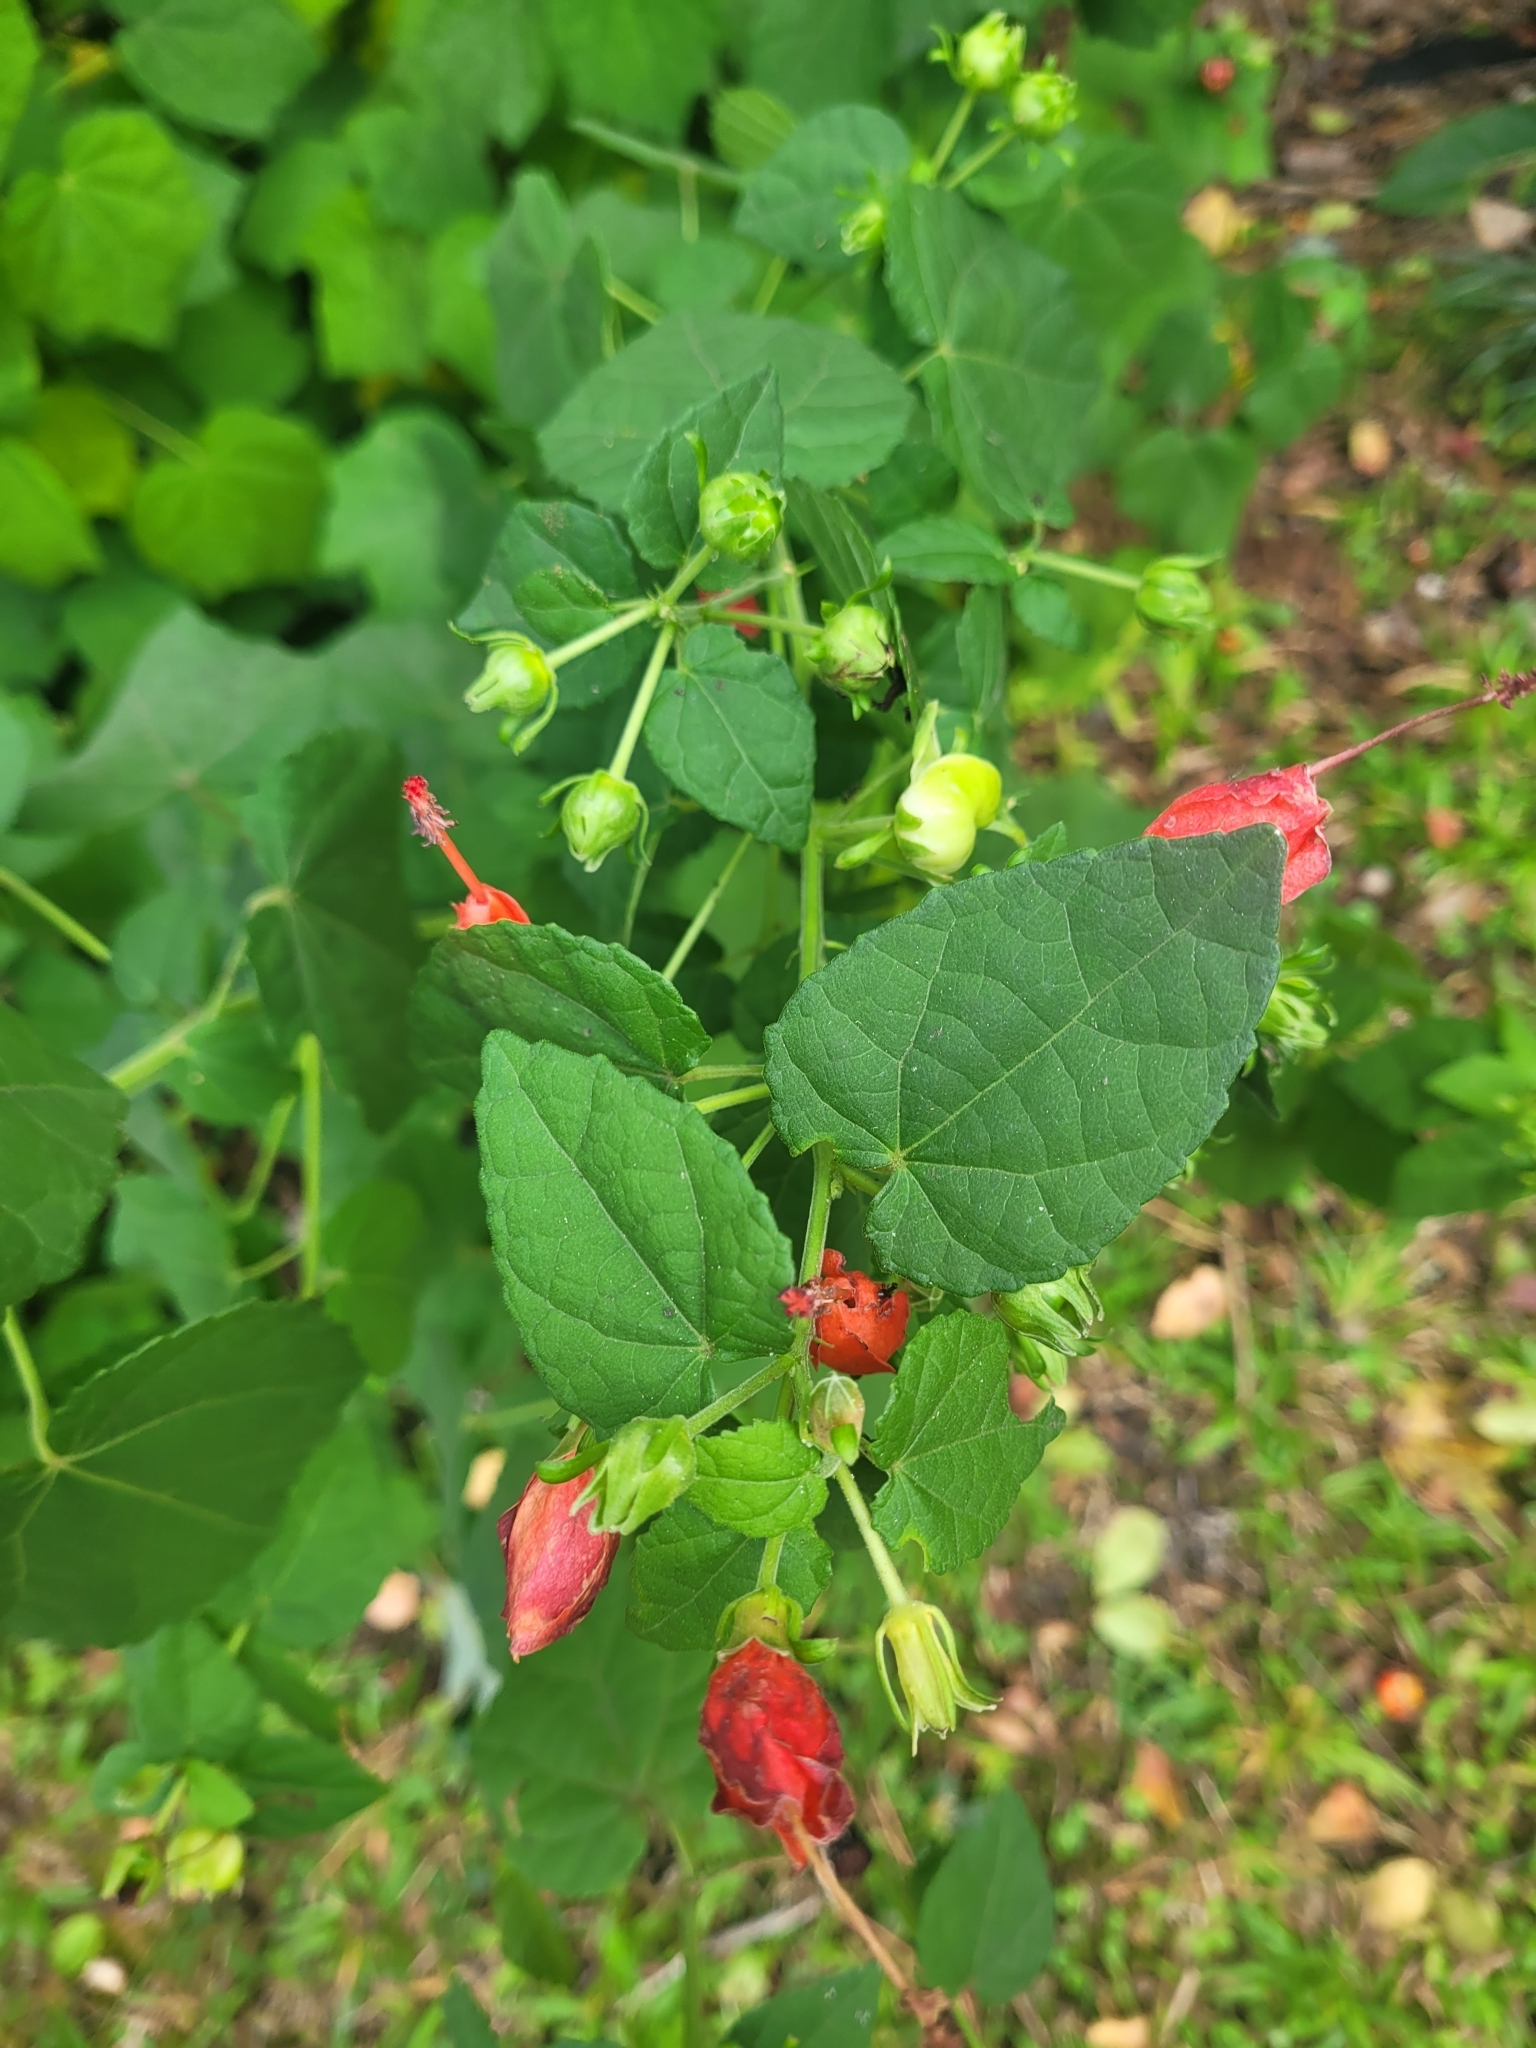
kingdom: Plantae
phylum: Tracheophyta
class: Magnoliopsida
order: Malvales
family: Malvaceae
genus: Malvaviscus
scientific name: Malvaviscus arboreus
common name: Wax mallow
